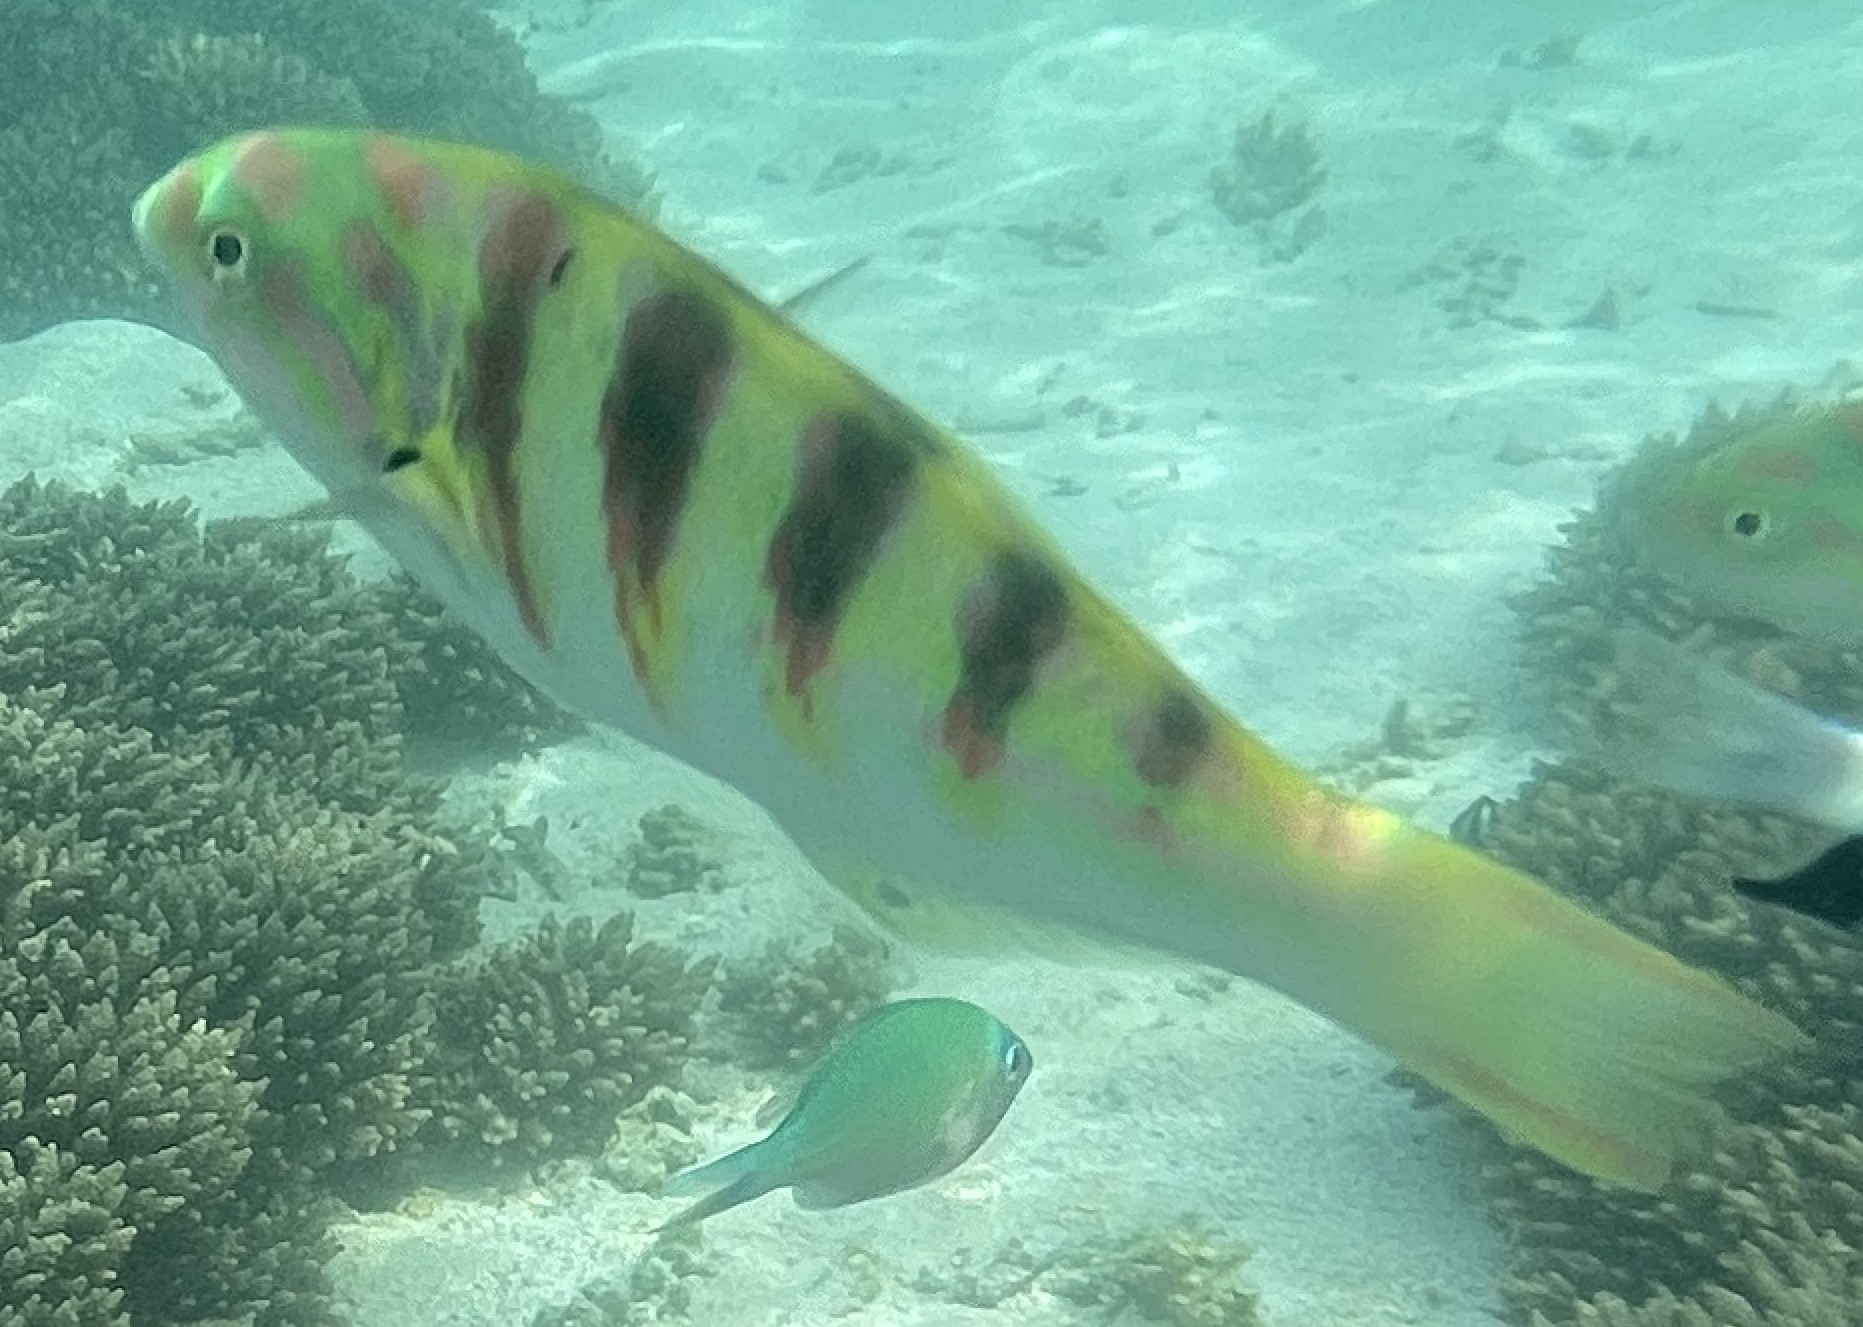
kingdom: Animalia
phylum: Chordata
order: Perciformes
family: Labridae
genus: Thalassoma
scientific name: Thalassoma hardwicke
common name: Sixbar wrasse
